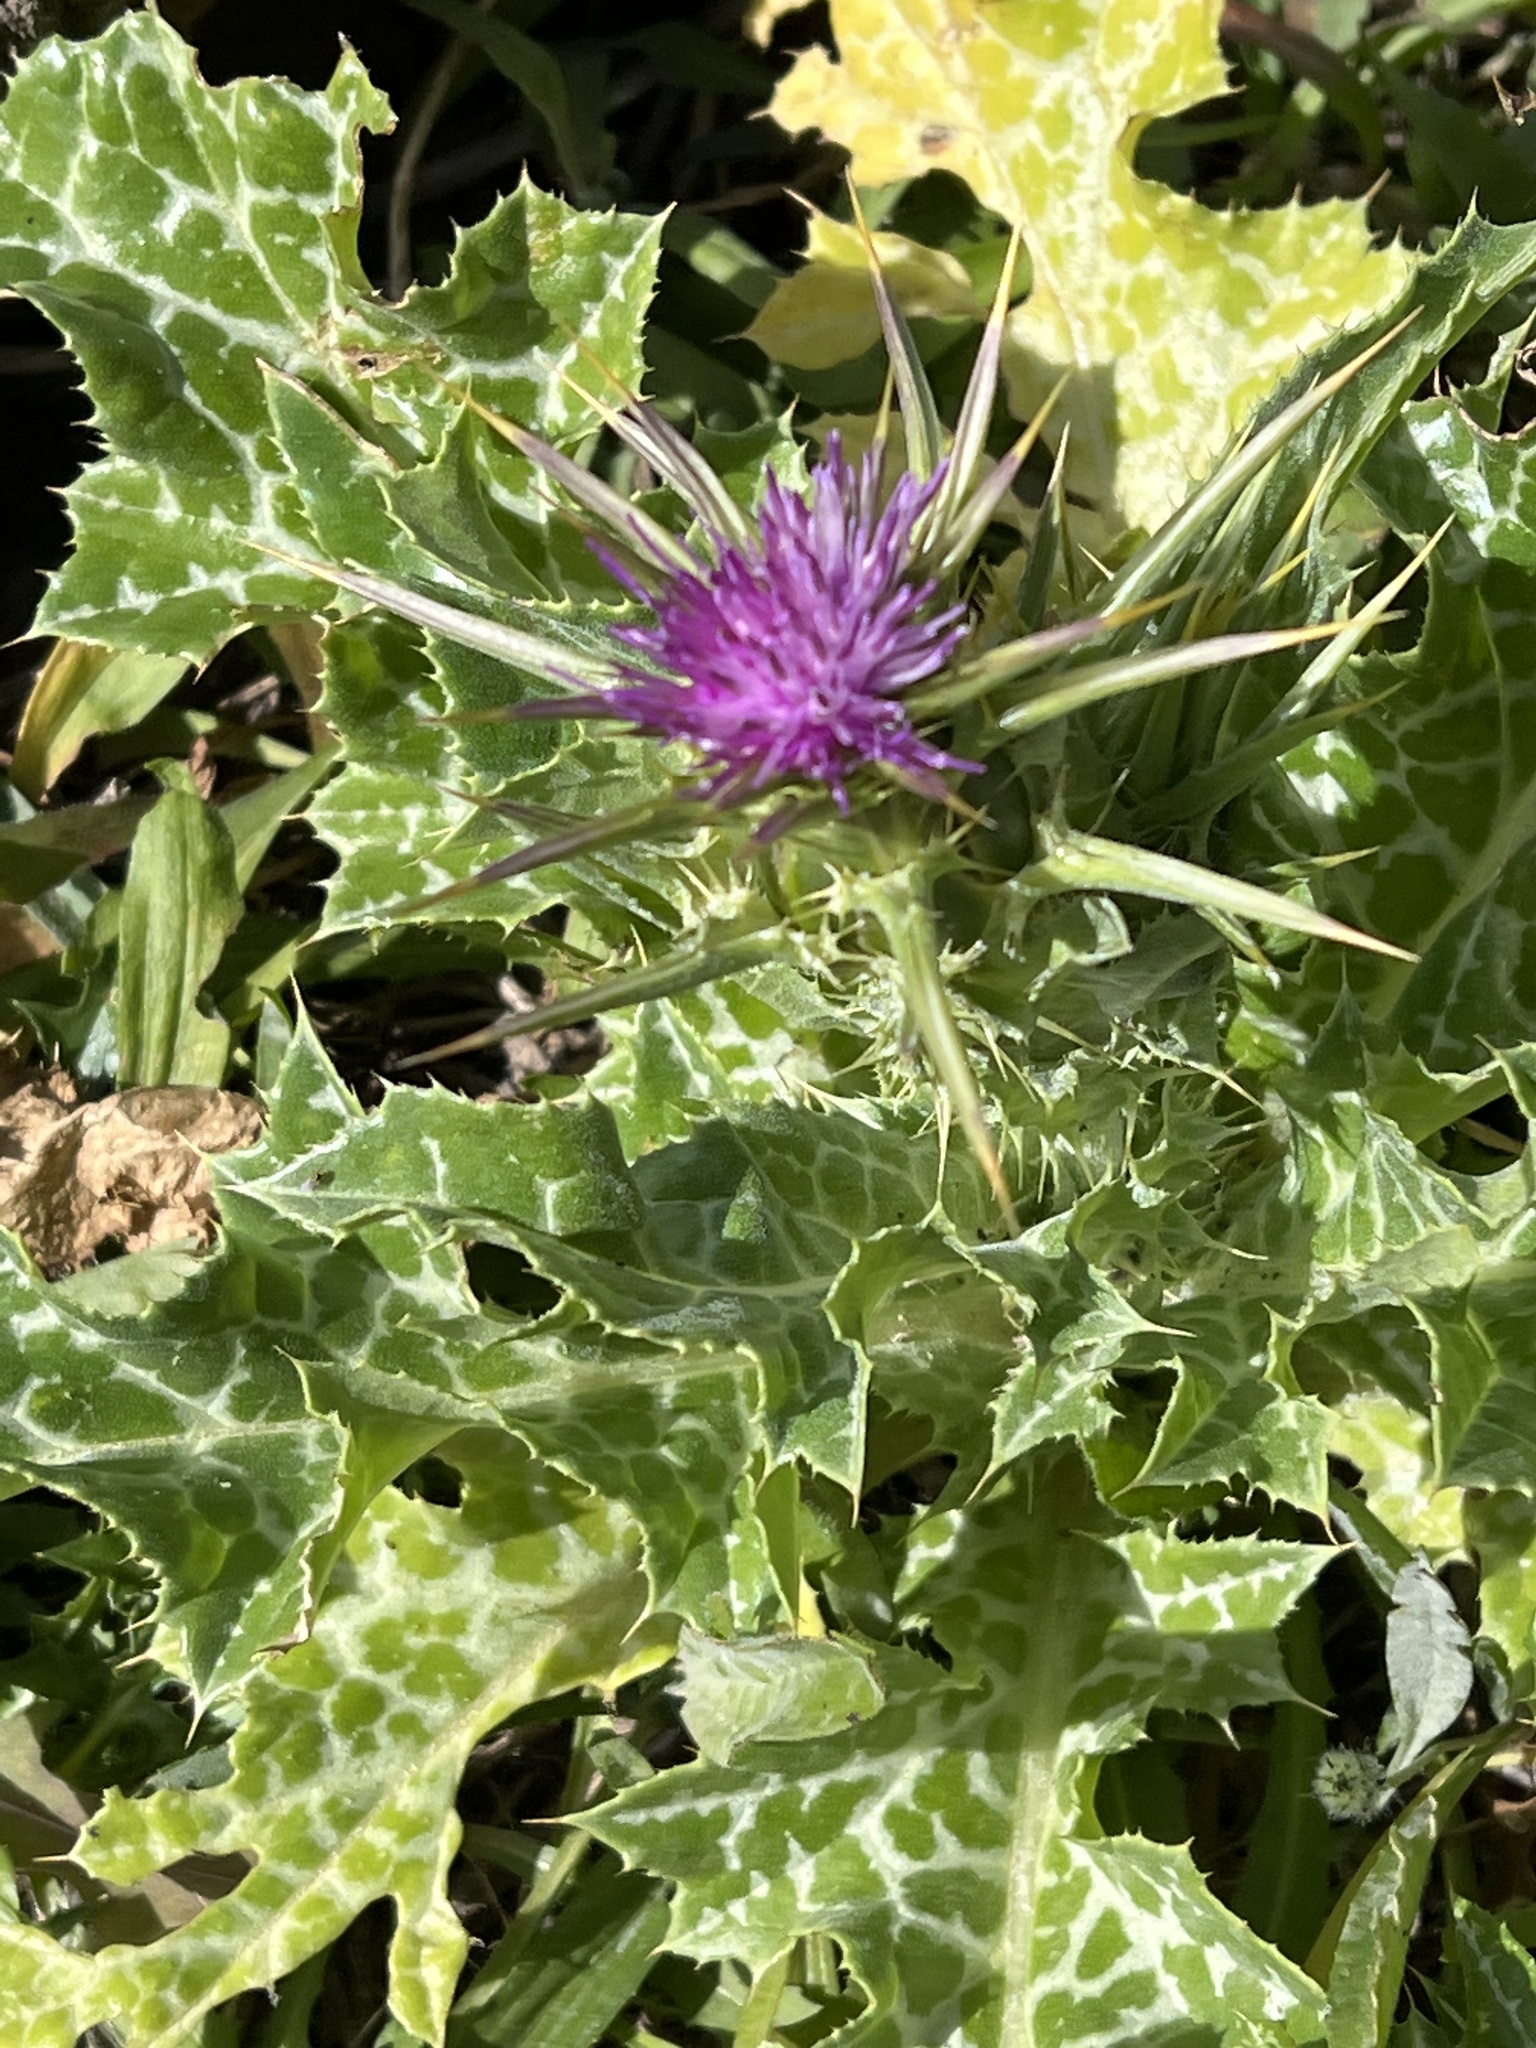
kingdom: Plantae
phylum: Tracheophyta
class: Magnoliopsida
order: Asterales
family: Asteraceae
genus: Silybum
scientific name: Silybum marianum
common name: Milk thistle
